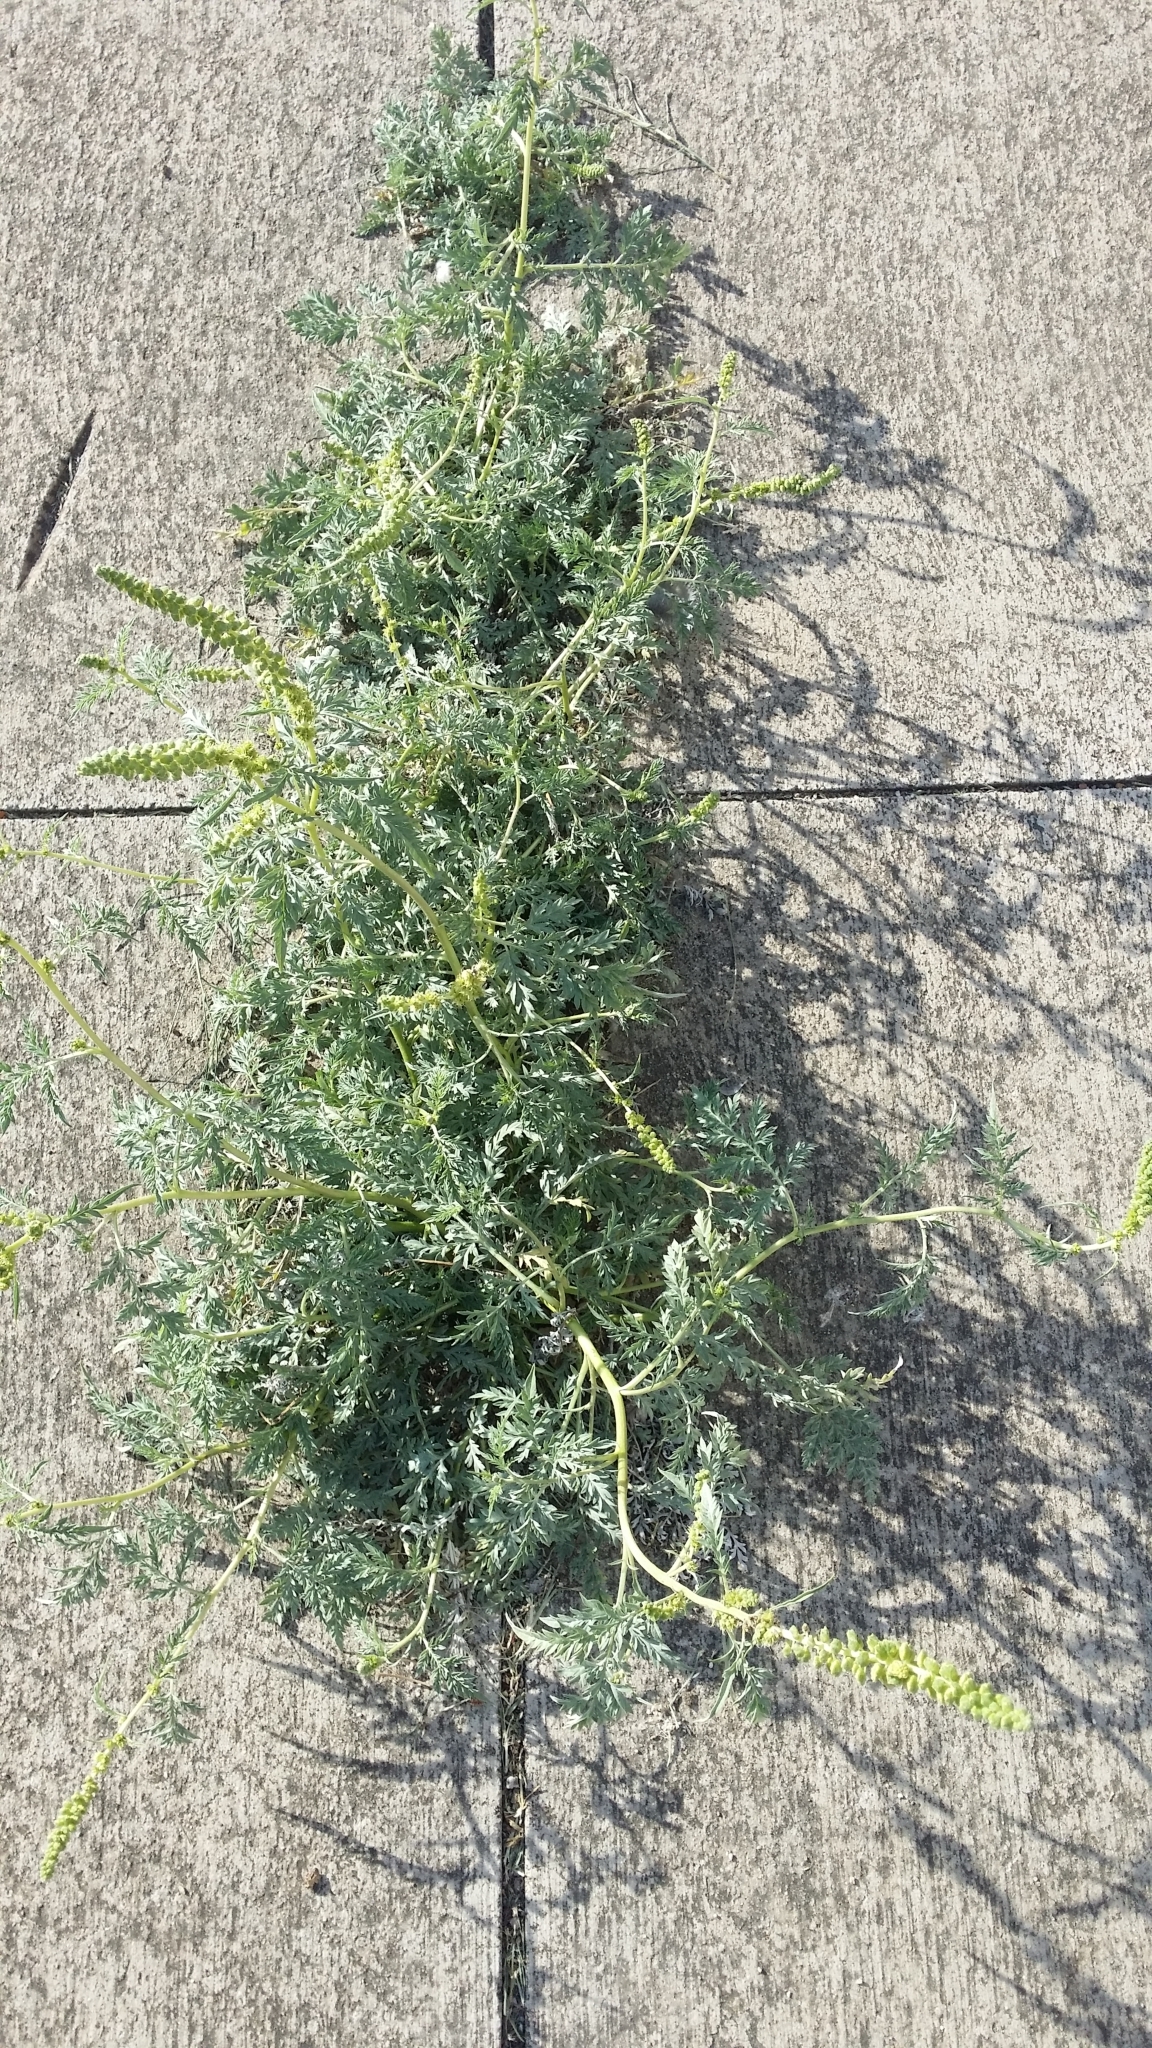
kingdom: Plantae
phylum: Tracheophyta
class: Magnoliopsida
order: Asterales
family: Asteraceae
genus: Ambrosia
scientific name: Ambrosia canescens
